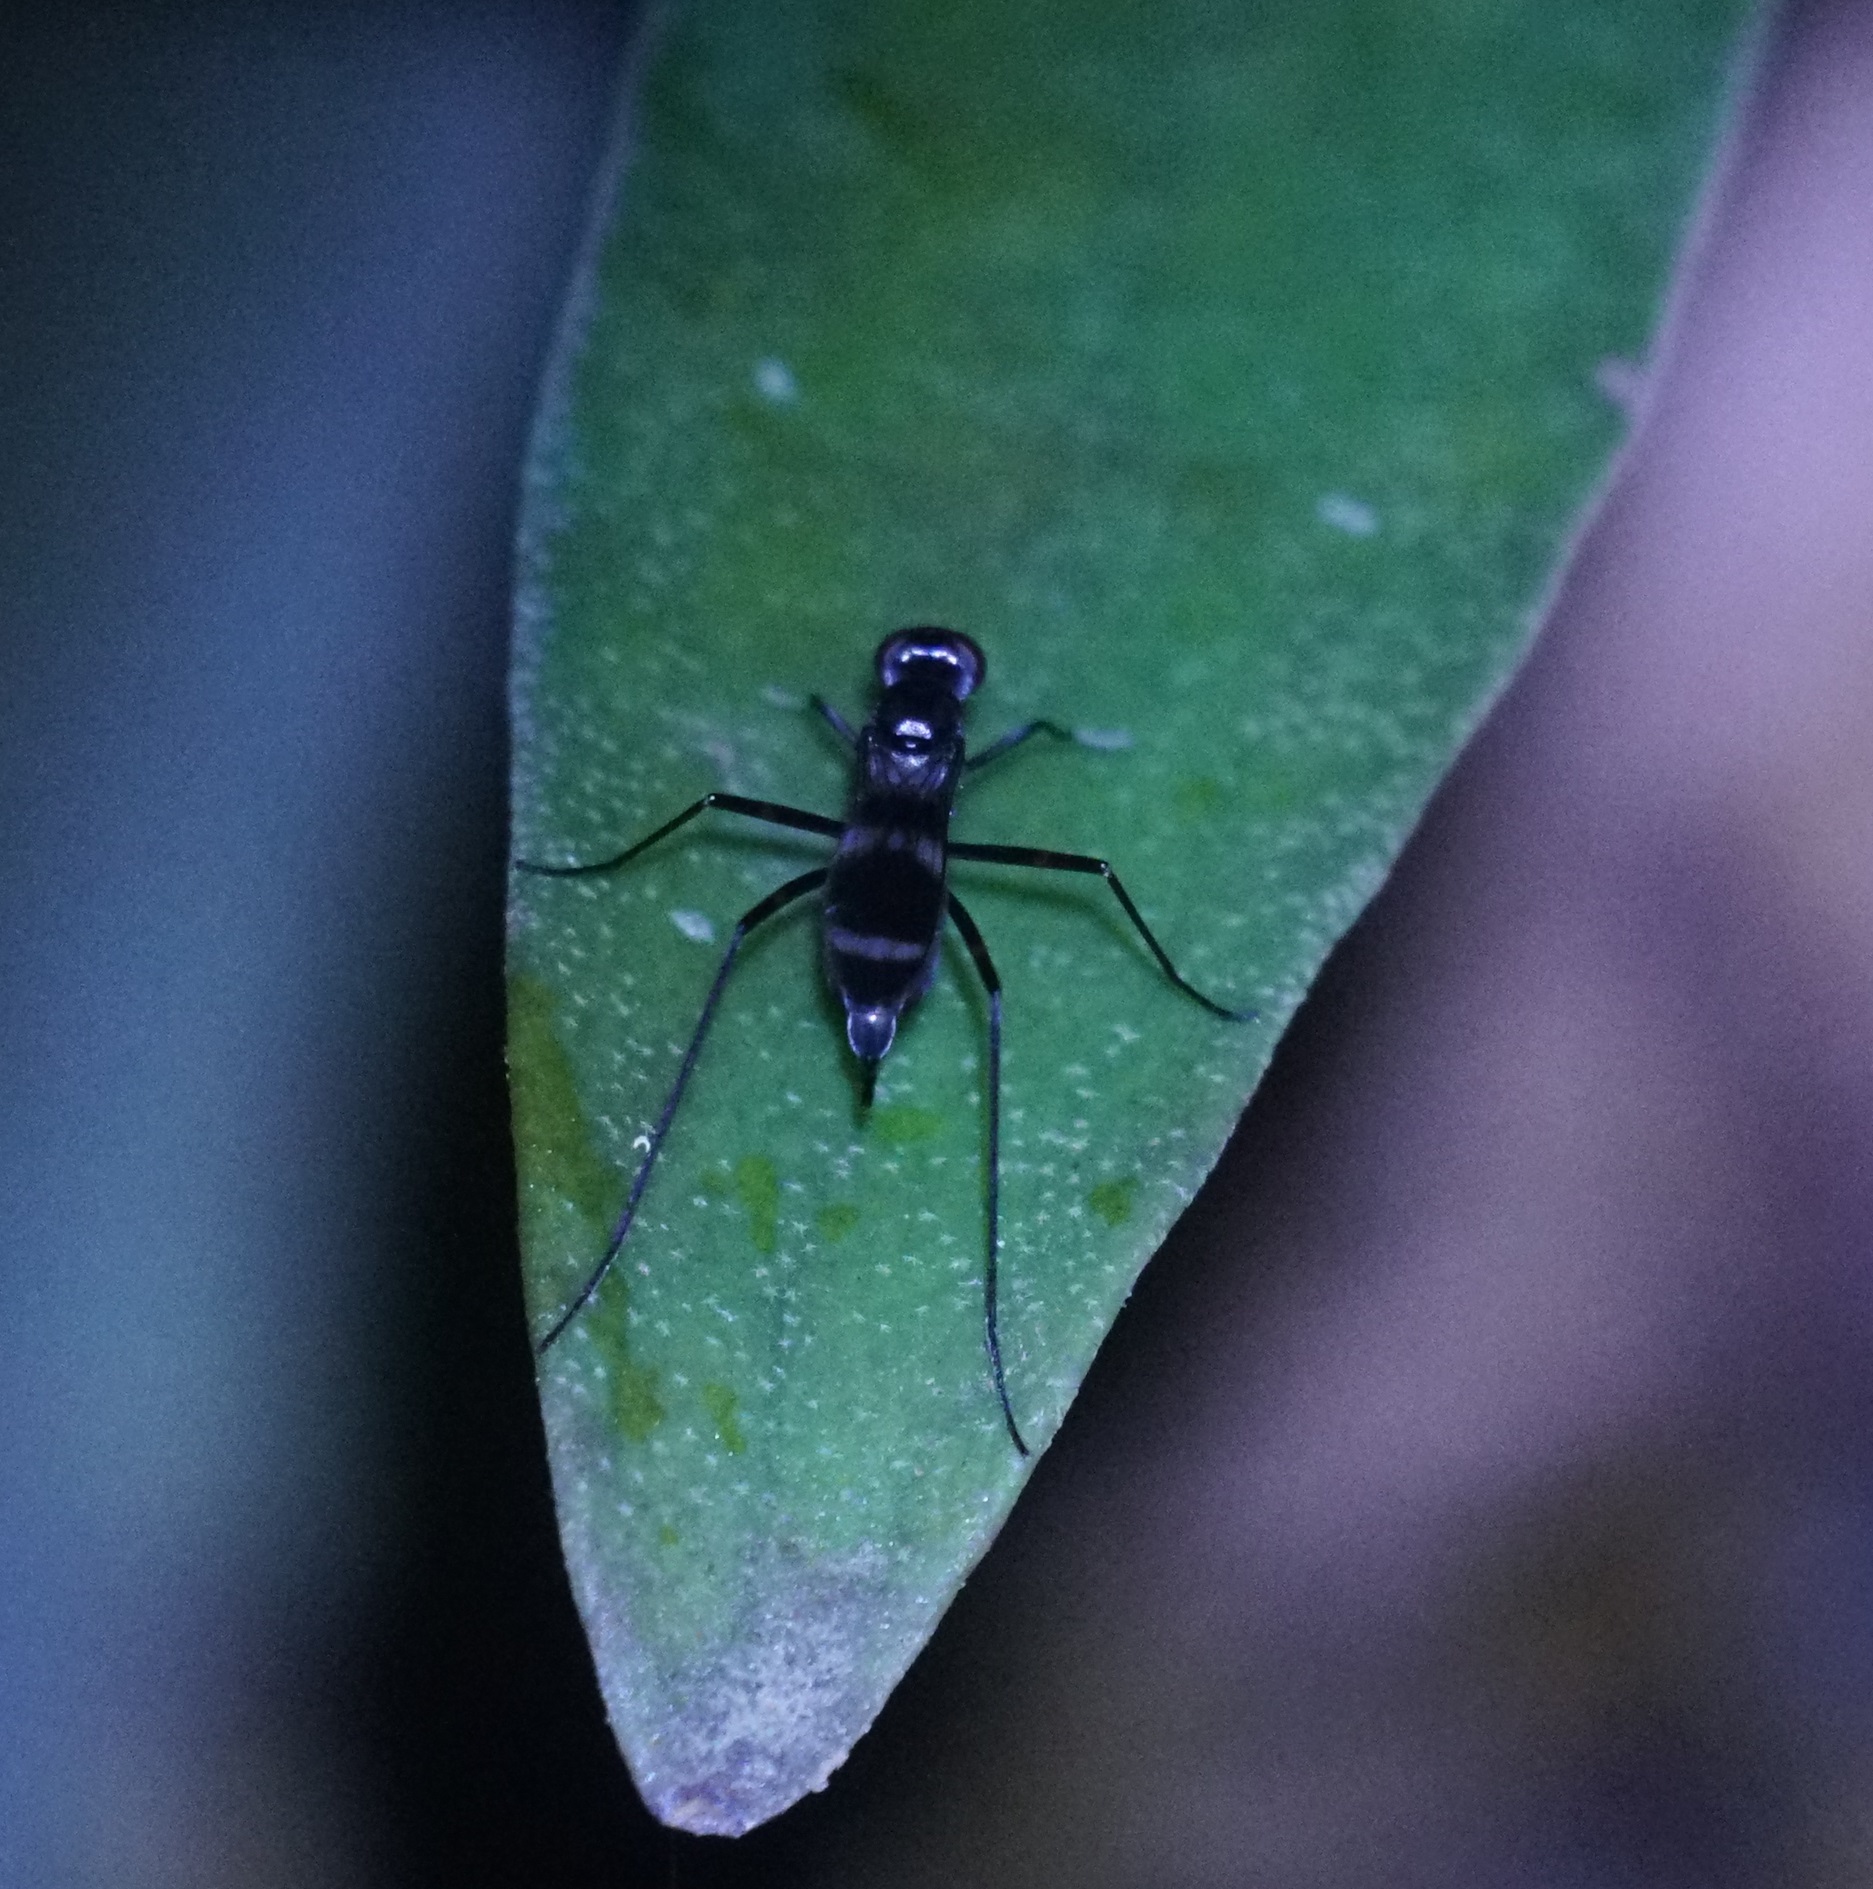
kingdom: Animalia
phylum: Arthropoda
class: Insecta
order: Diptera
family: Micropezidae
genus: Mimegralla
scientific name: Mimegralla australica
